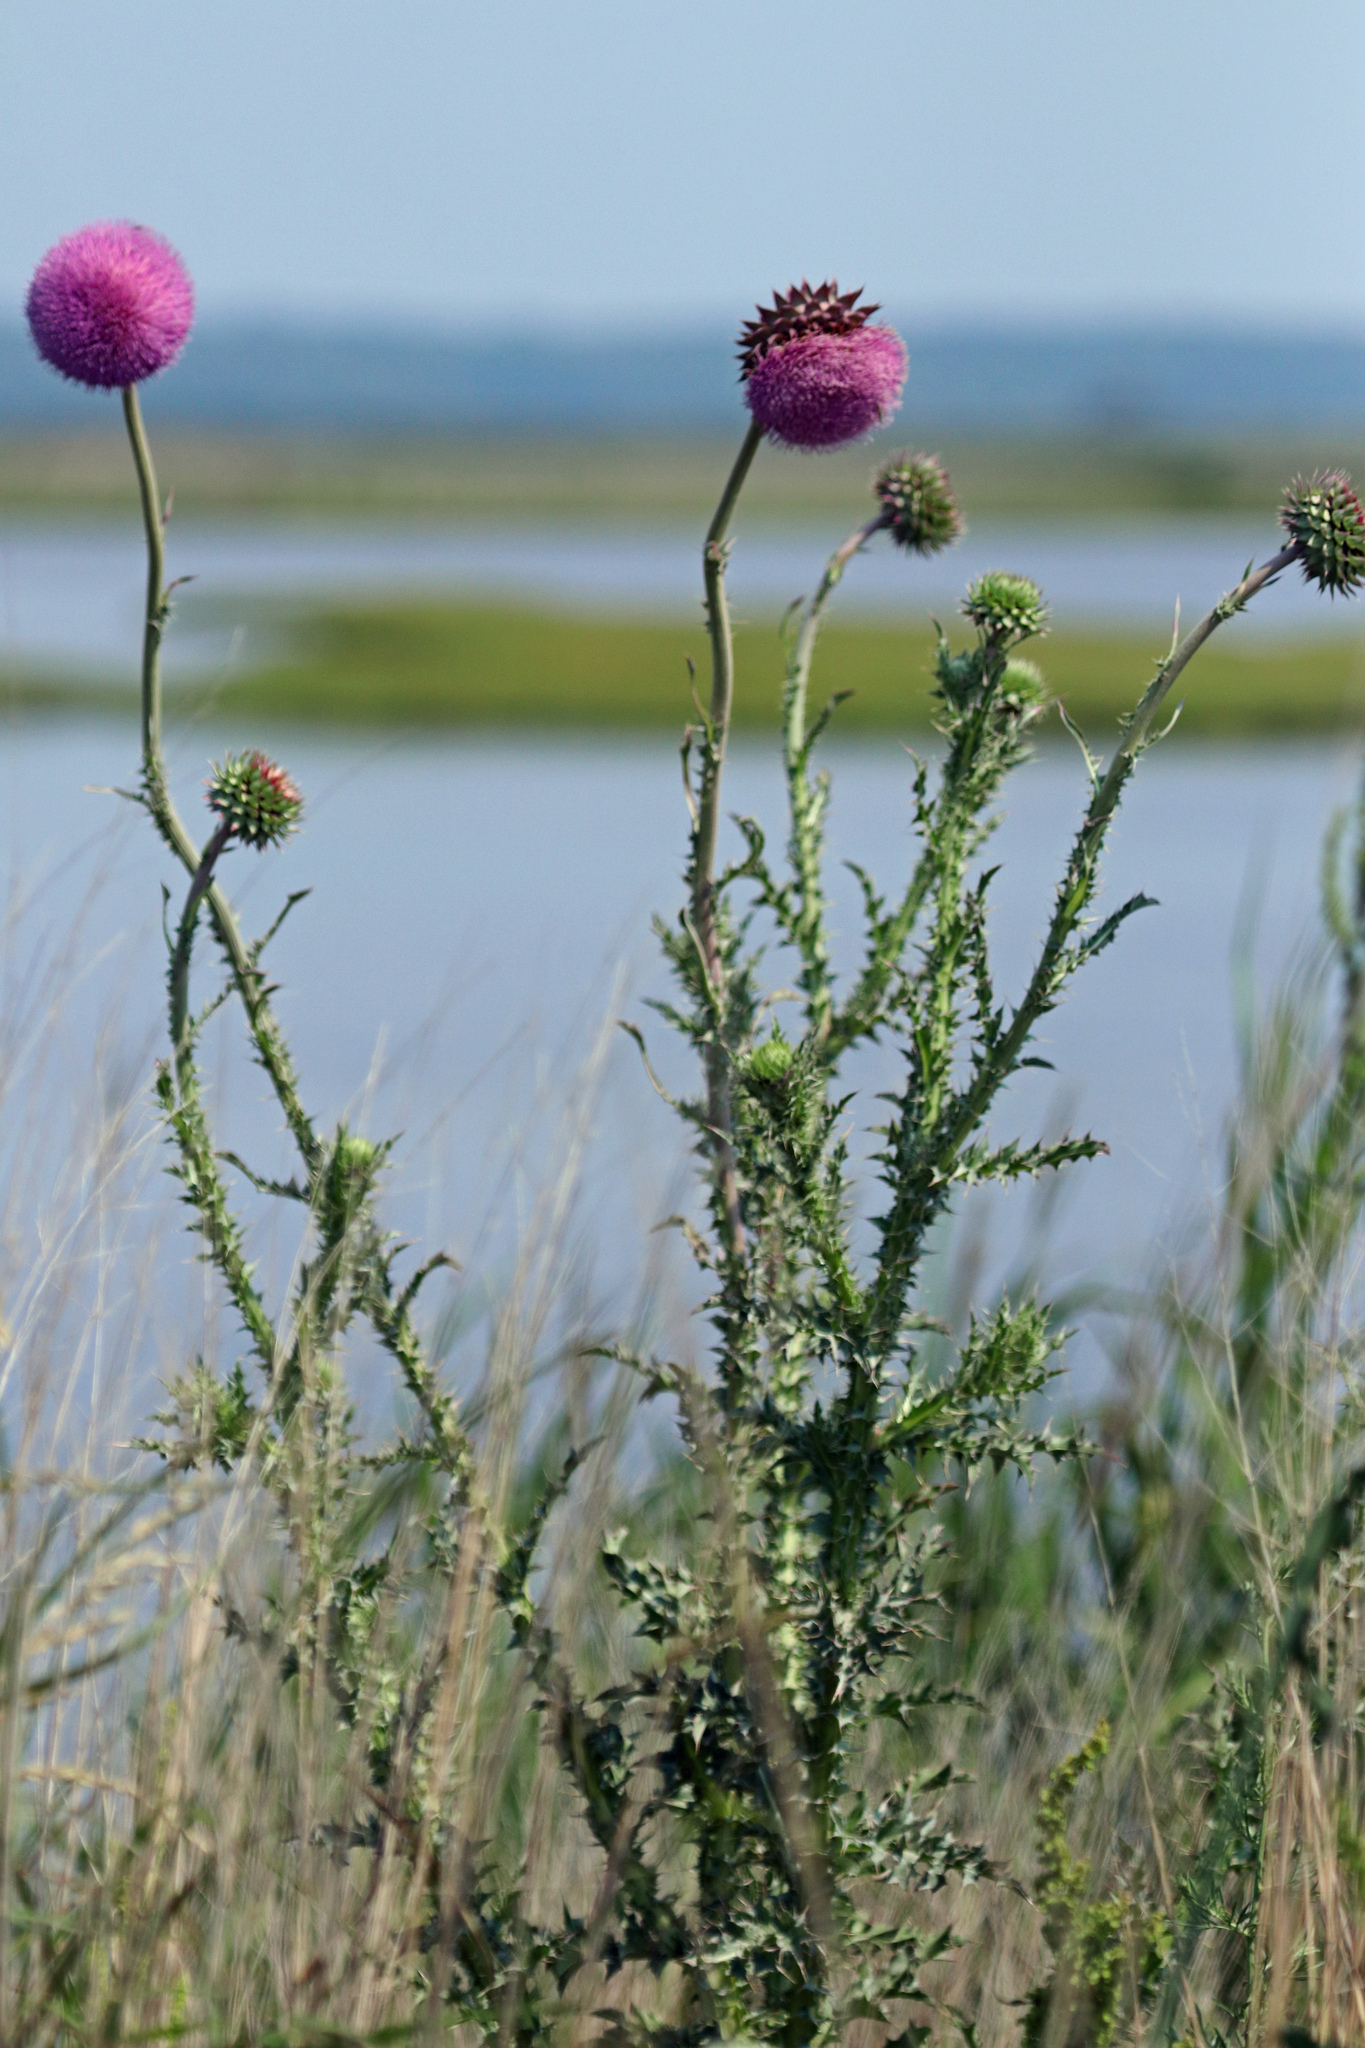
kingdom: Plantae
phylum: Tracheophyta
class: Magnoliopsida
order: Asterales
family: Asteraceae
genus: Carduus
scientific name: Carduus nutans
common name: Musk thistle
